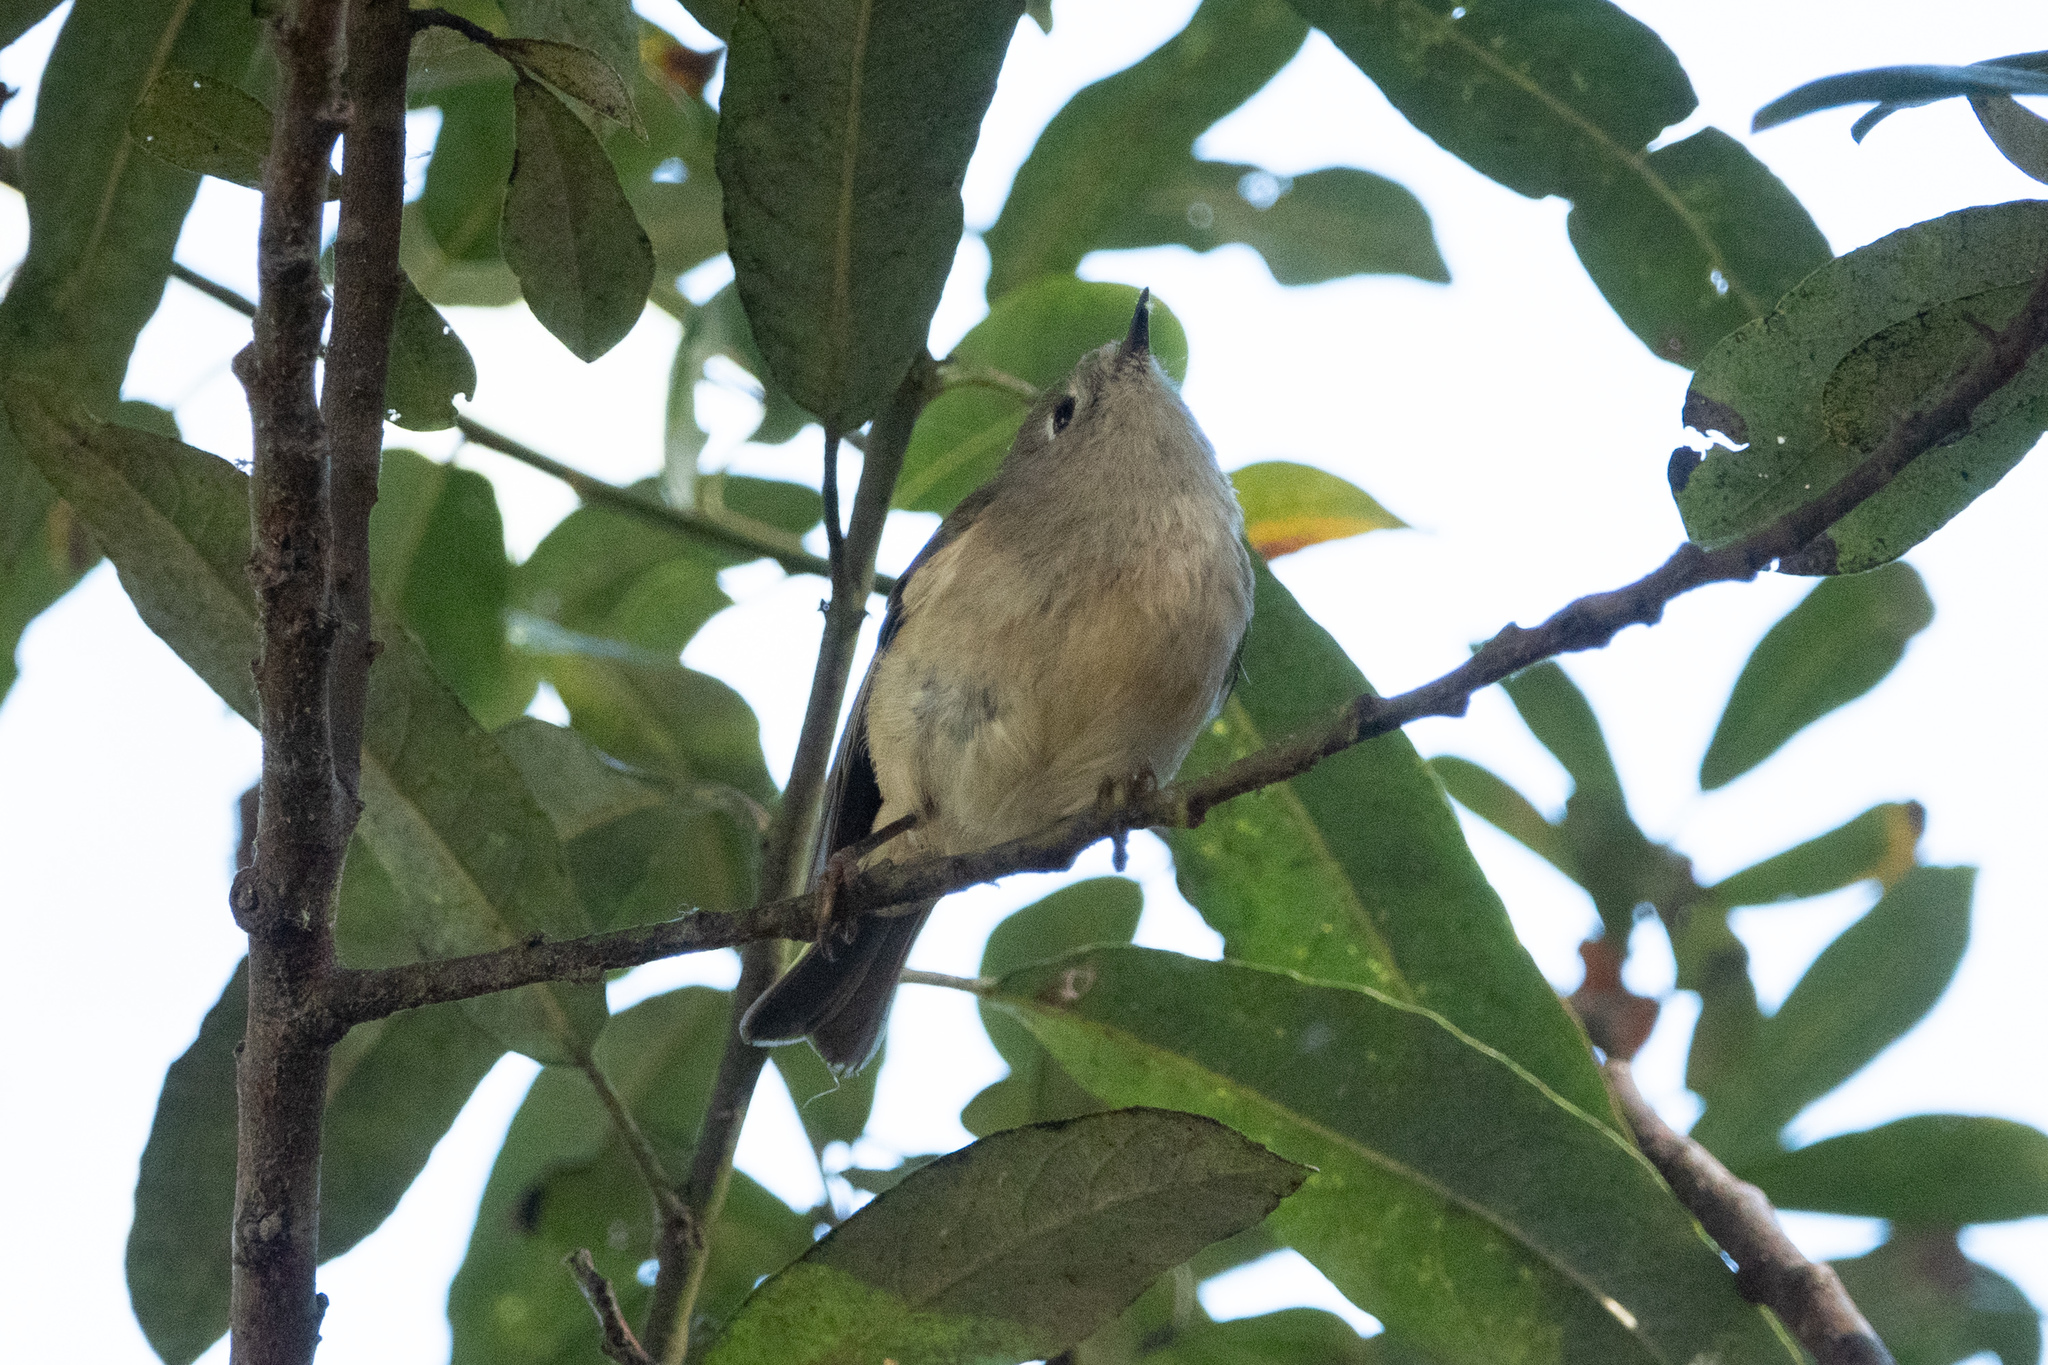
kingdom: Animalia
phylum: Chordata
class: Aves
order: Passeriformes
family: Regulidae
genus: Regulus
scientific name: Regulus calendula
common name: Ruby-crowned kinglet
